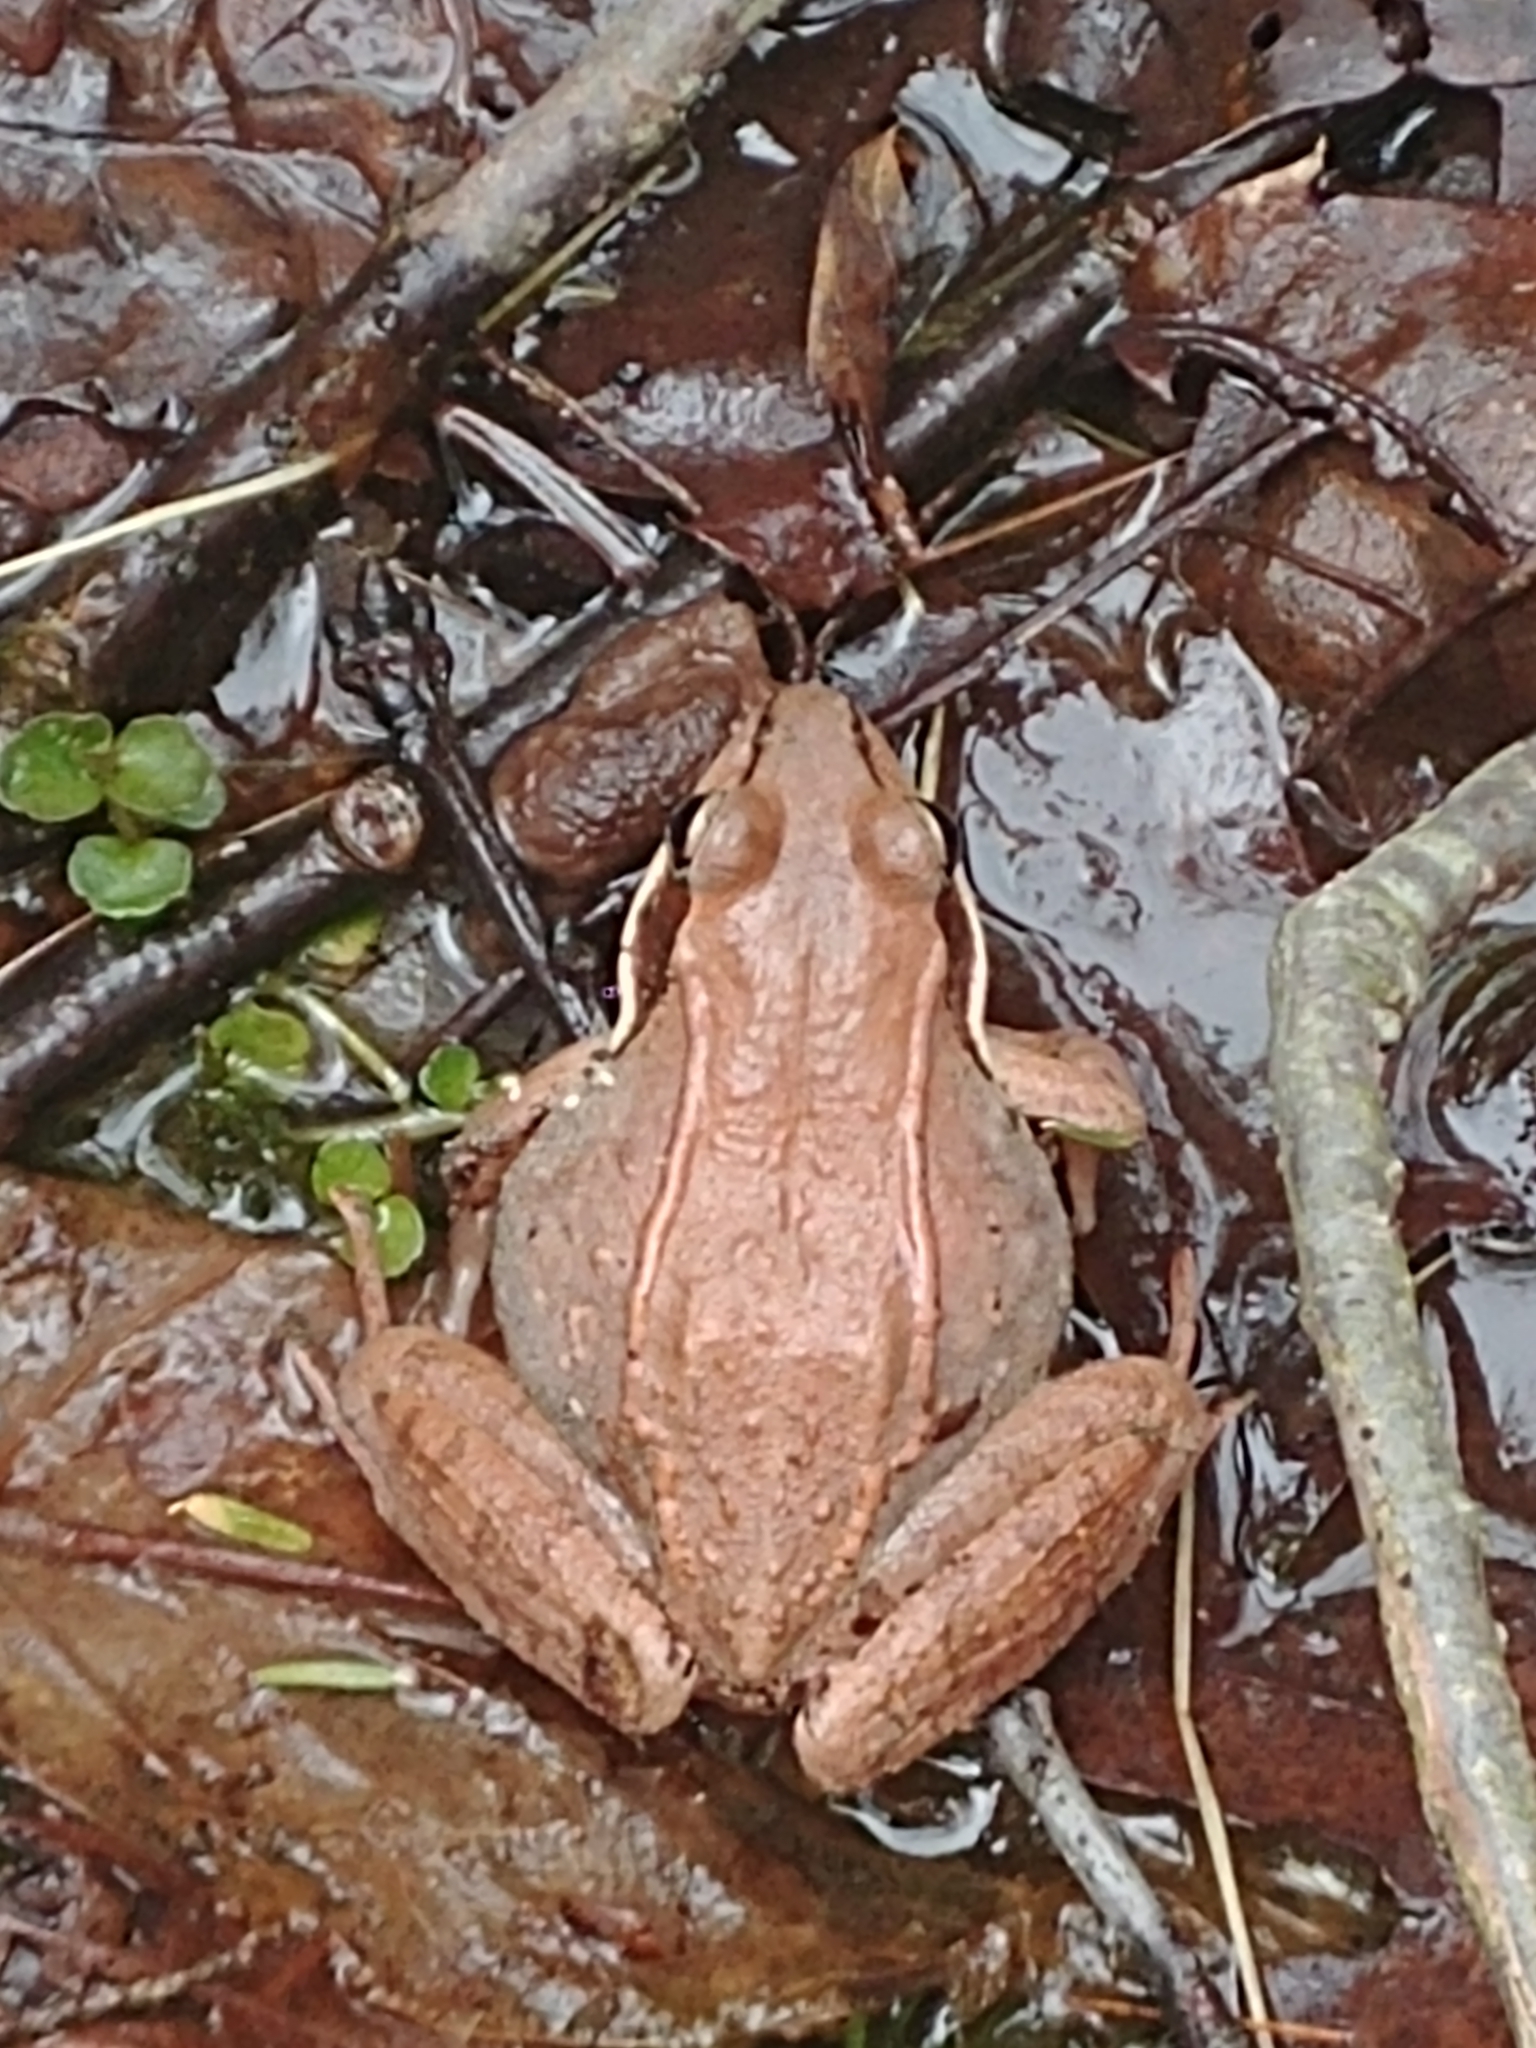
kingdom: Animalia
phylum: Chordata
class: Amphibia
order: Anura
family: Ranidae
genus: Lithobates
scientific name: Lithobates sylvaticus
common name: Wood frog
